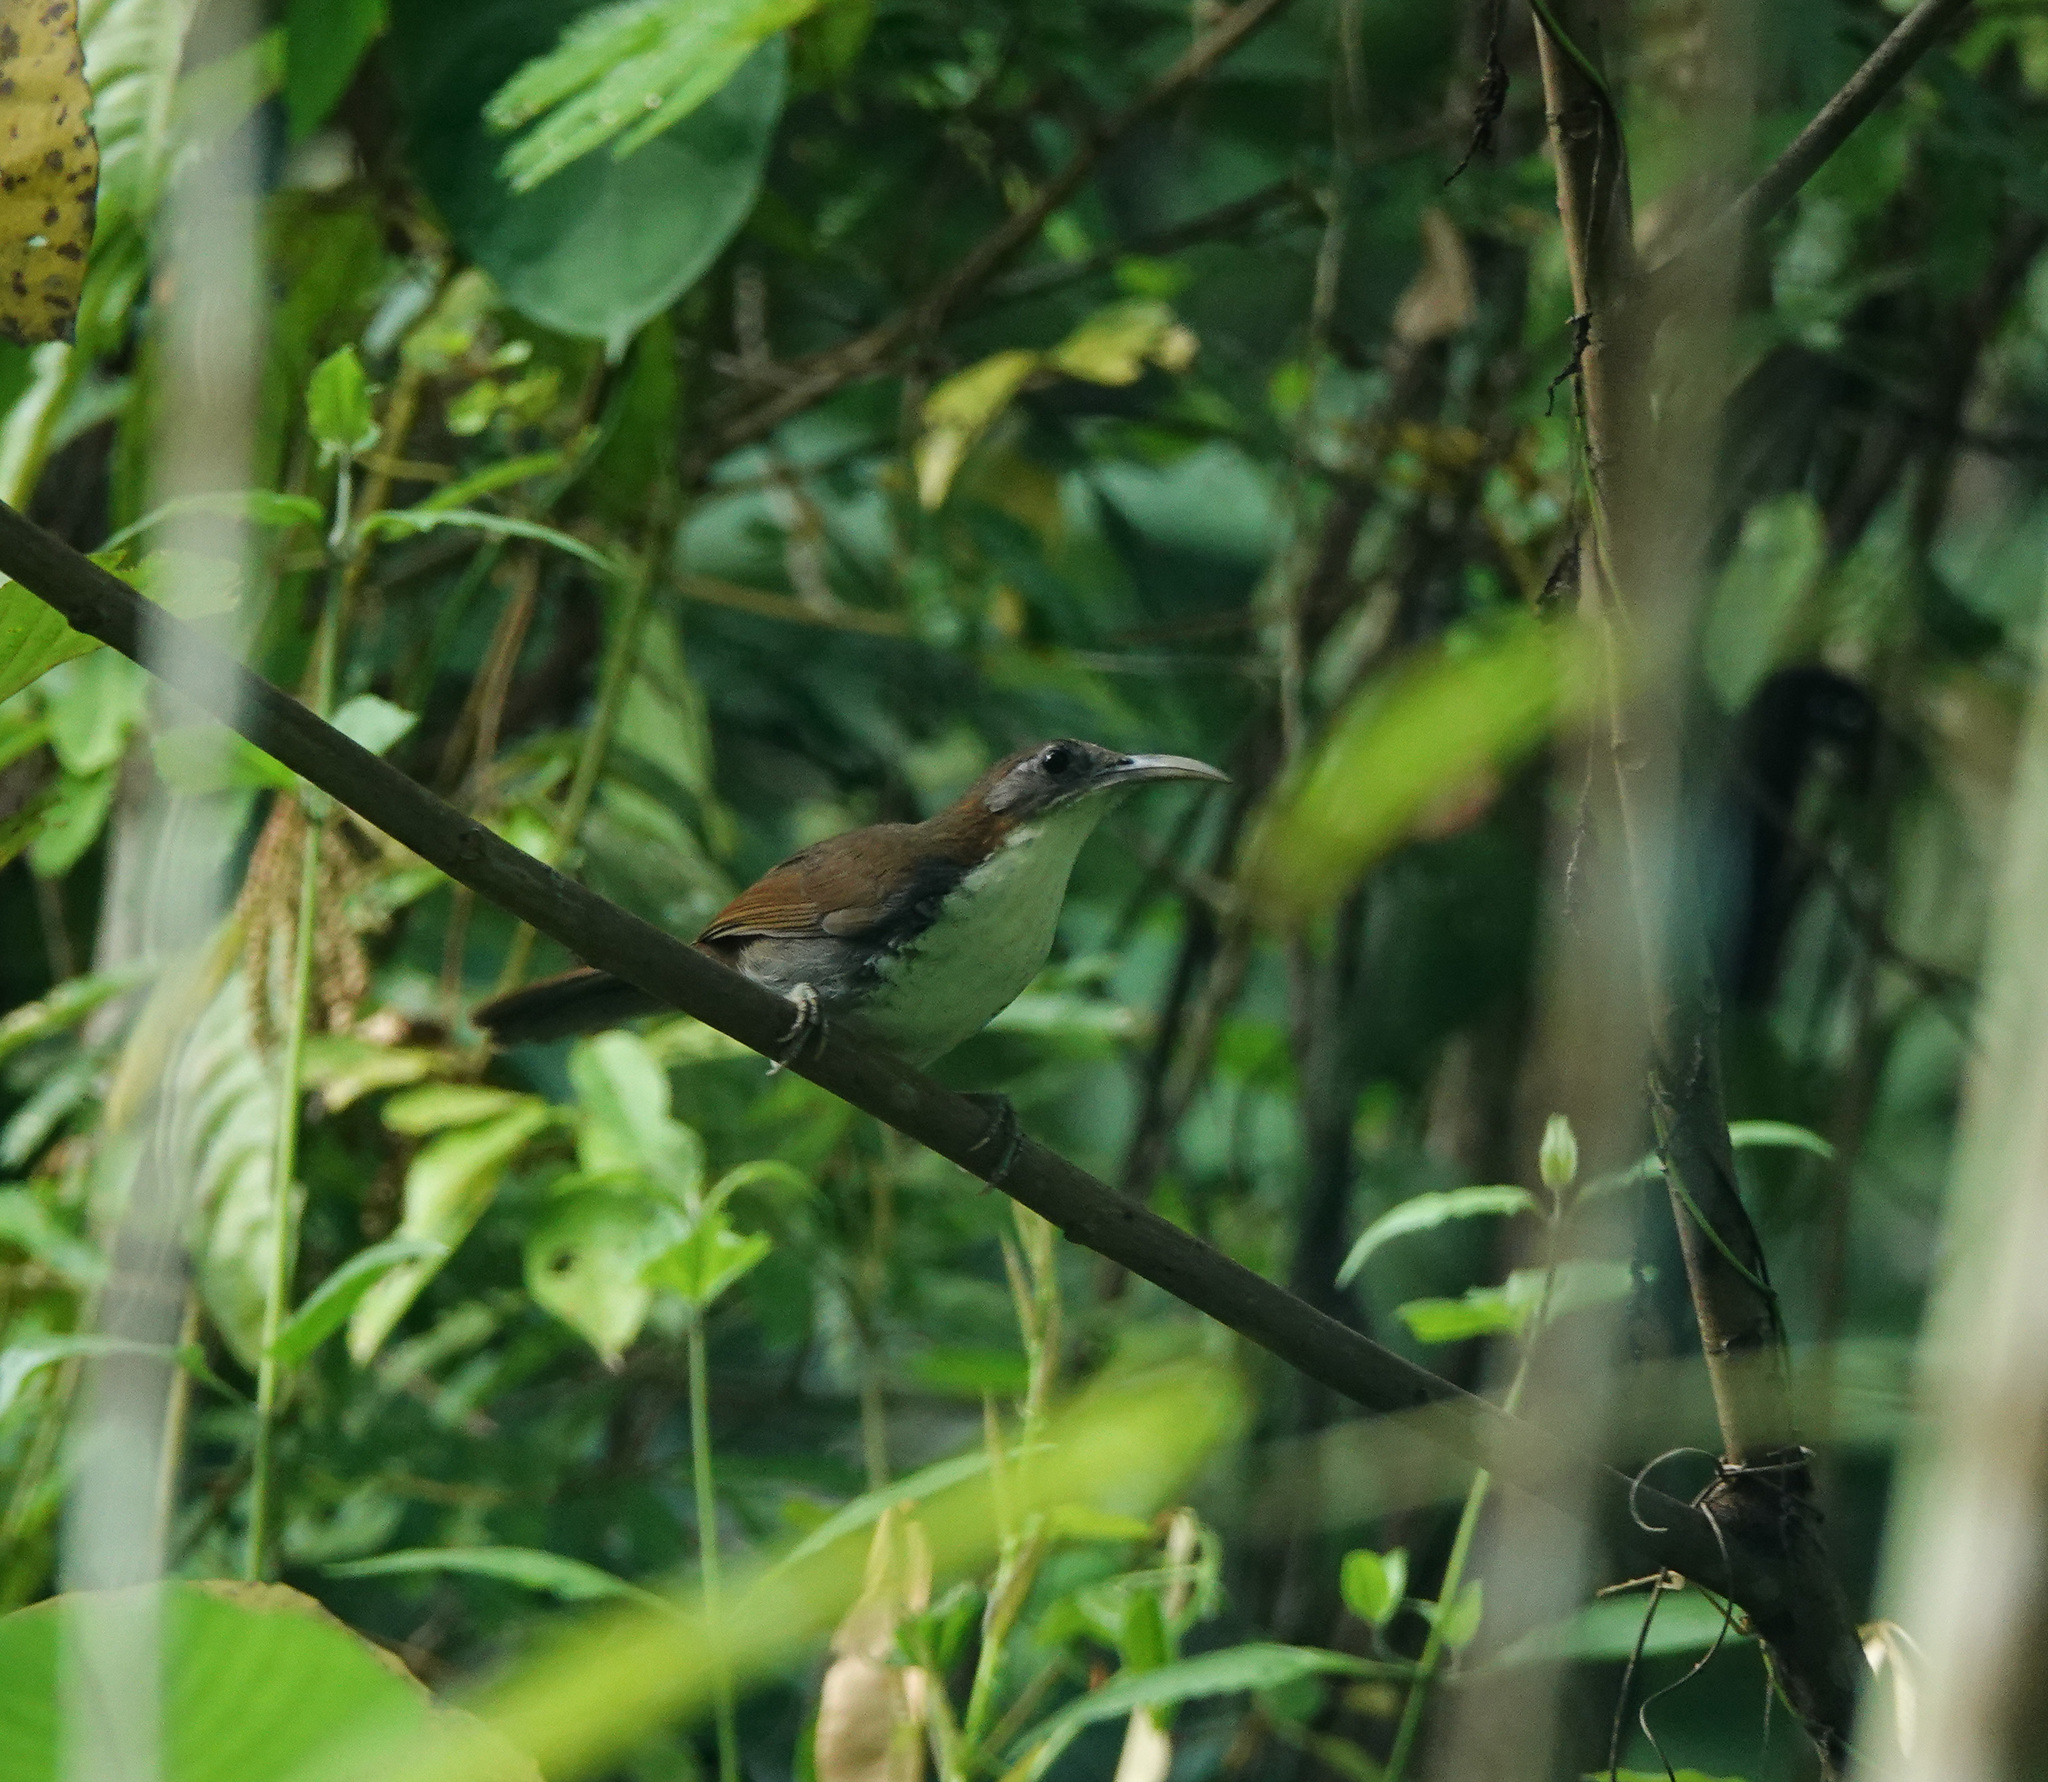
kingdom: Animalia
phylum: Chordata
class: Aves
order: Passeriformes
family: Timaliidae
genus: Pomatorhinus
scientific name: Pomatorhinus hypoleucos
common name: Large scimitar babbler
